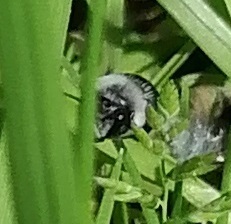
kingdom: Animalia
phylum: Arthropoda
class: Insecta
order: Hymenoptera
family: Andrenidae
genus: Andrena
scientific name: Andrena cineraria
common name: Ashy mining bee
